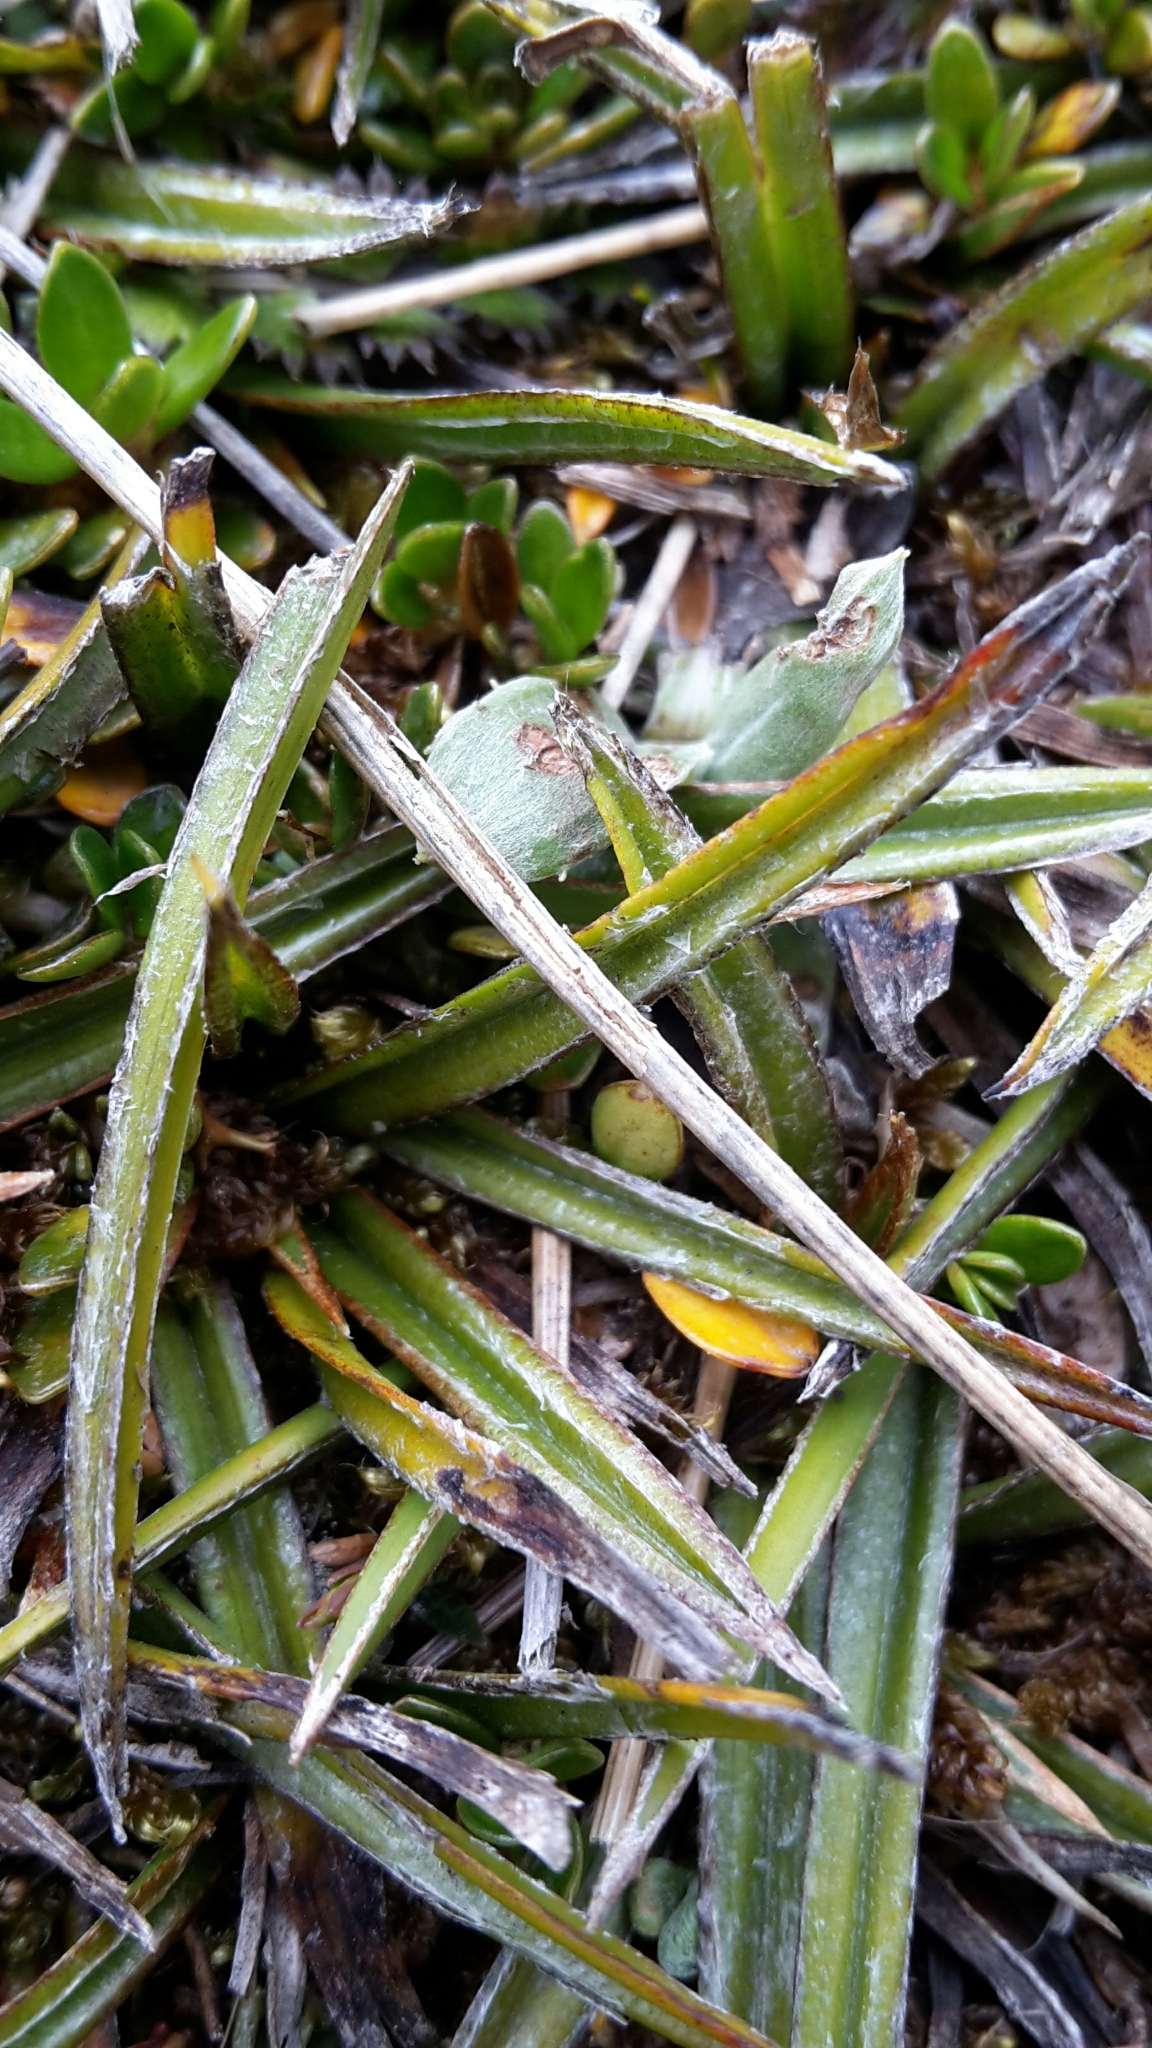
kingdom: Plantae
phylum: Tracheophyta
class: Liliopsida
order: Asparagales
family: Asteliaceae
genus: Astelia
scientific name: Astelia linearis
